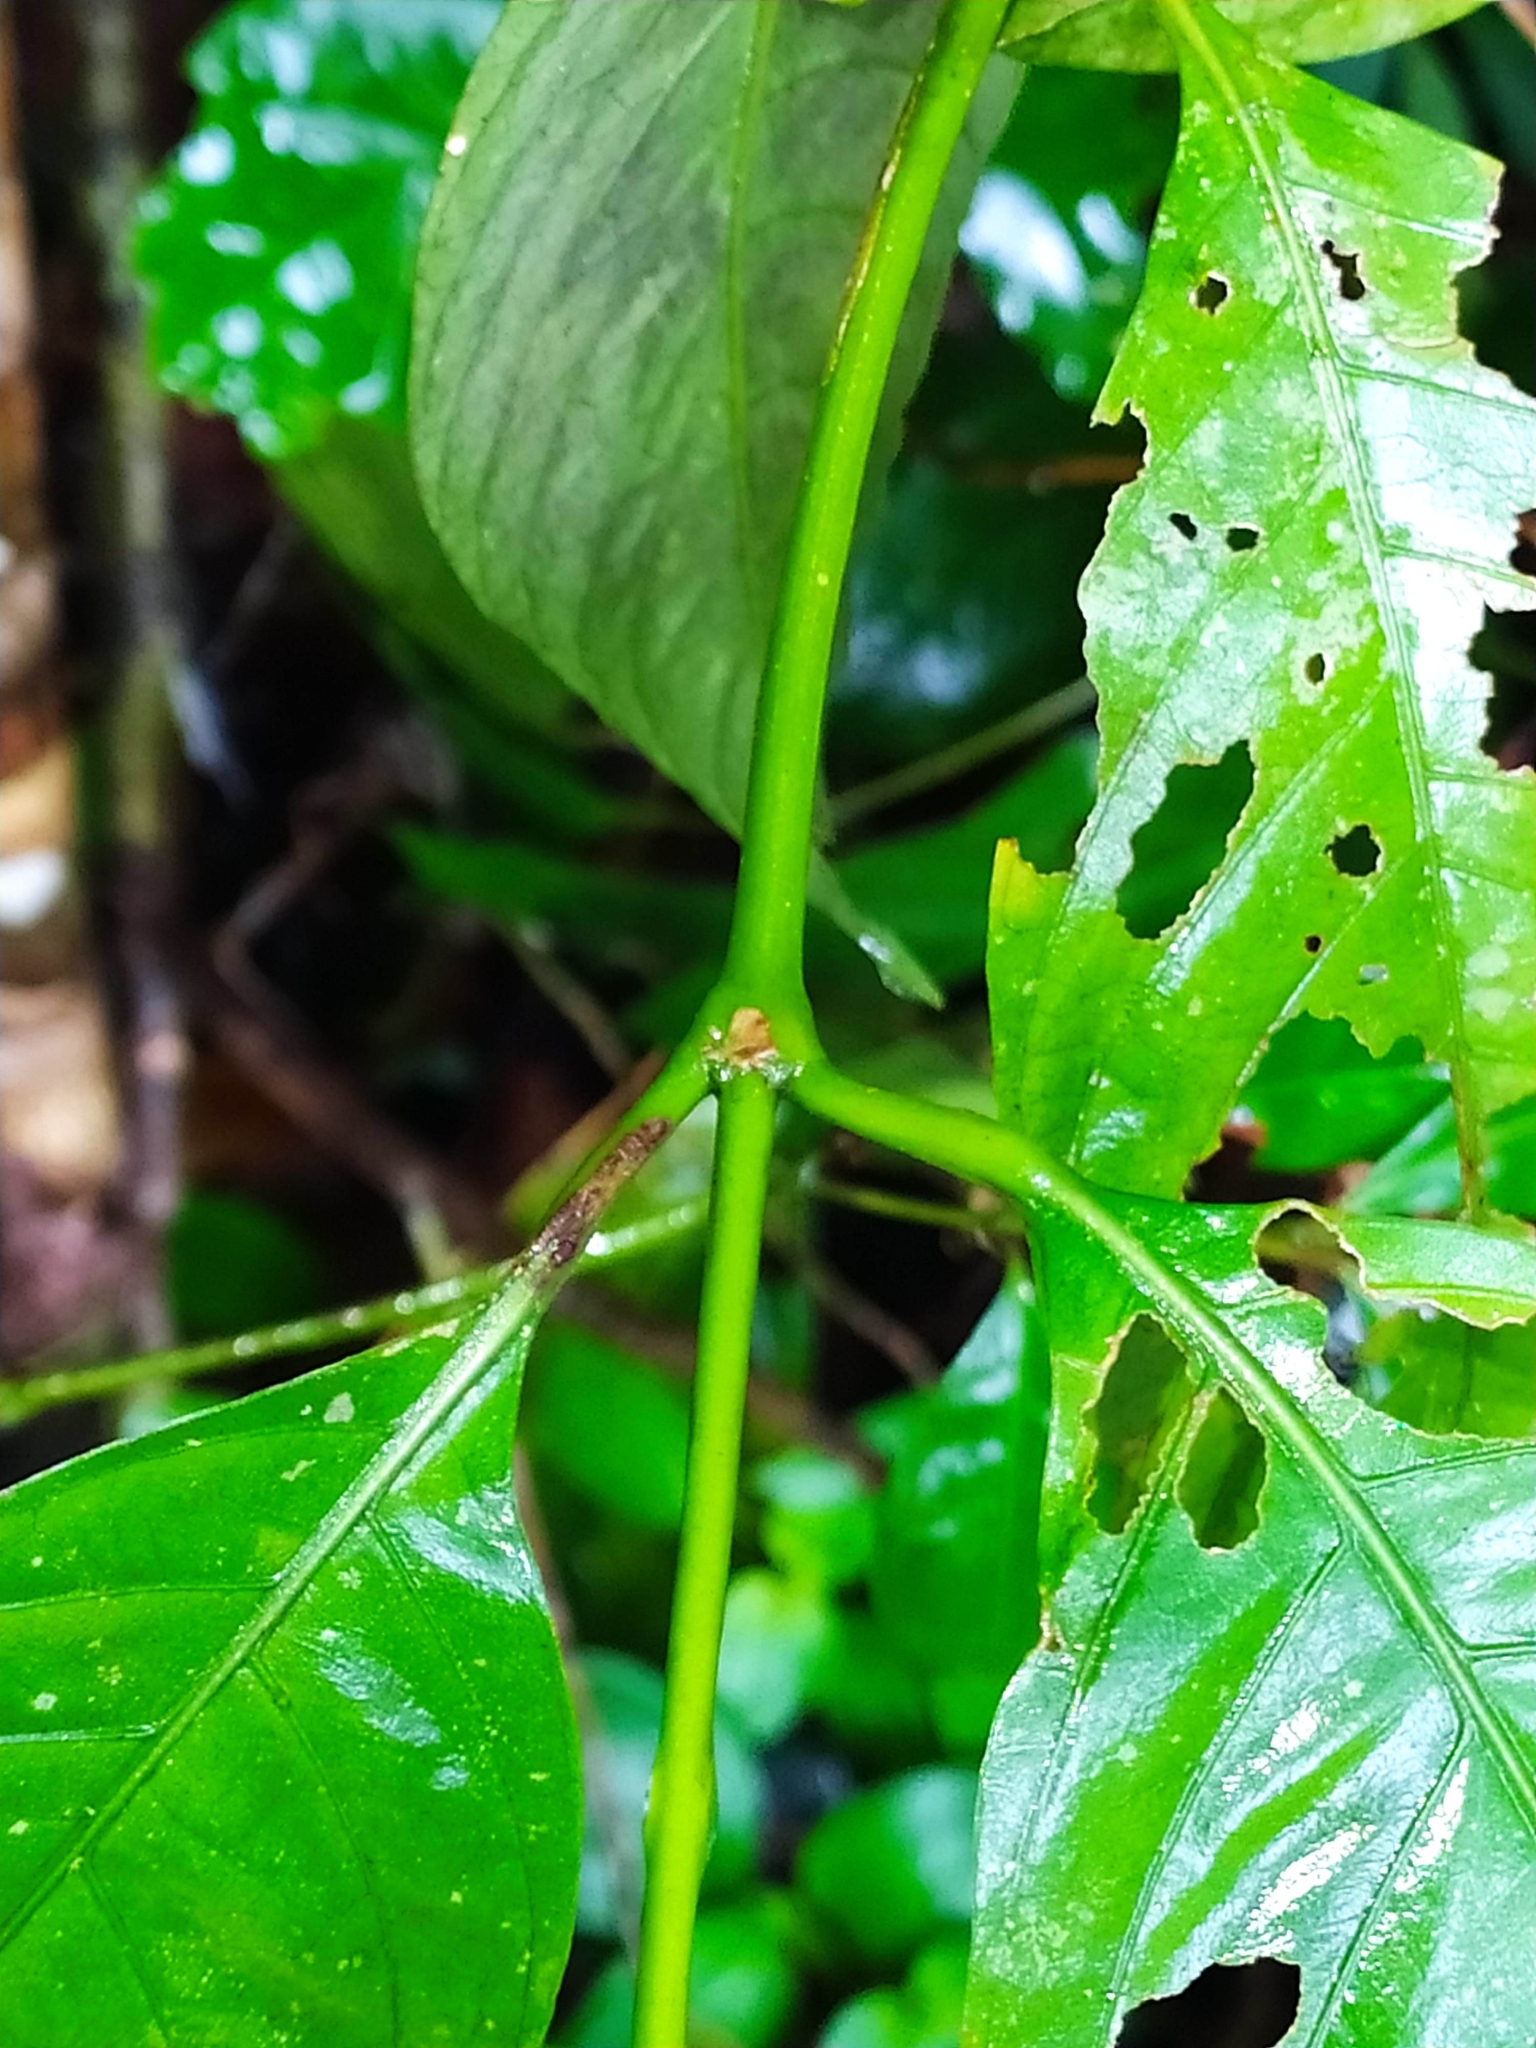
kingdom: Plantae
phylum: Tracheophyta
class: Magnoliopsida
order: Gentianales
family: Rubiaceae
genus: Palicourea
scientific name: Palicourea longiflora
